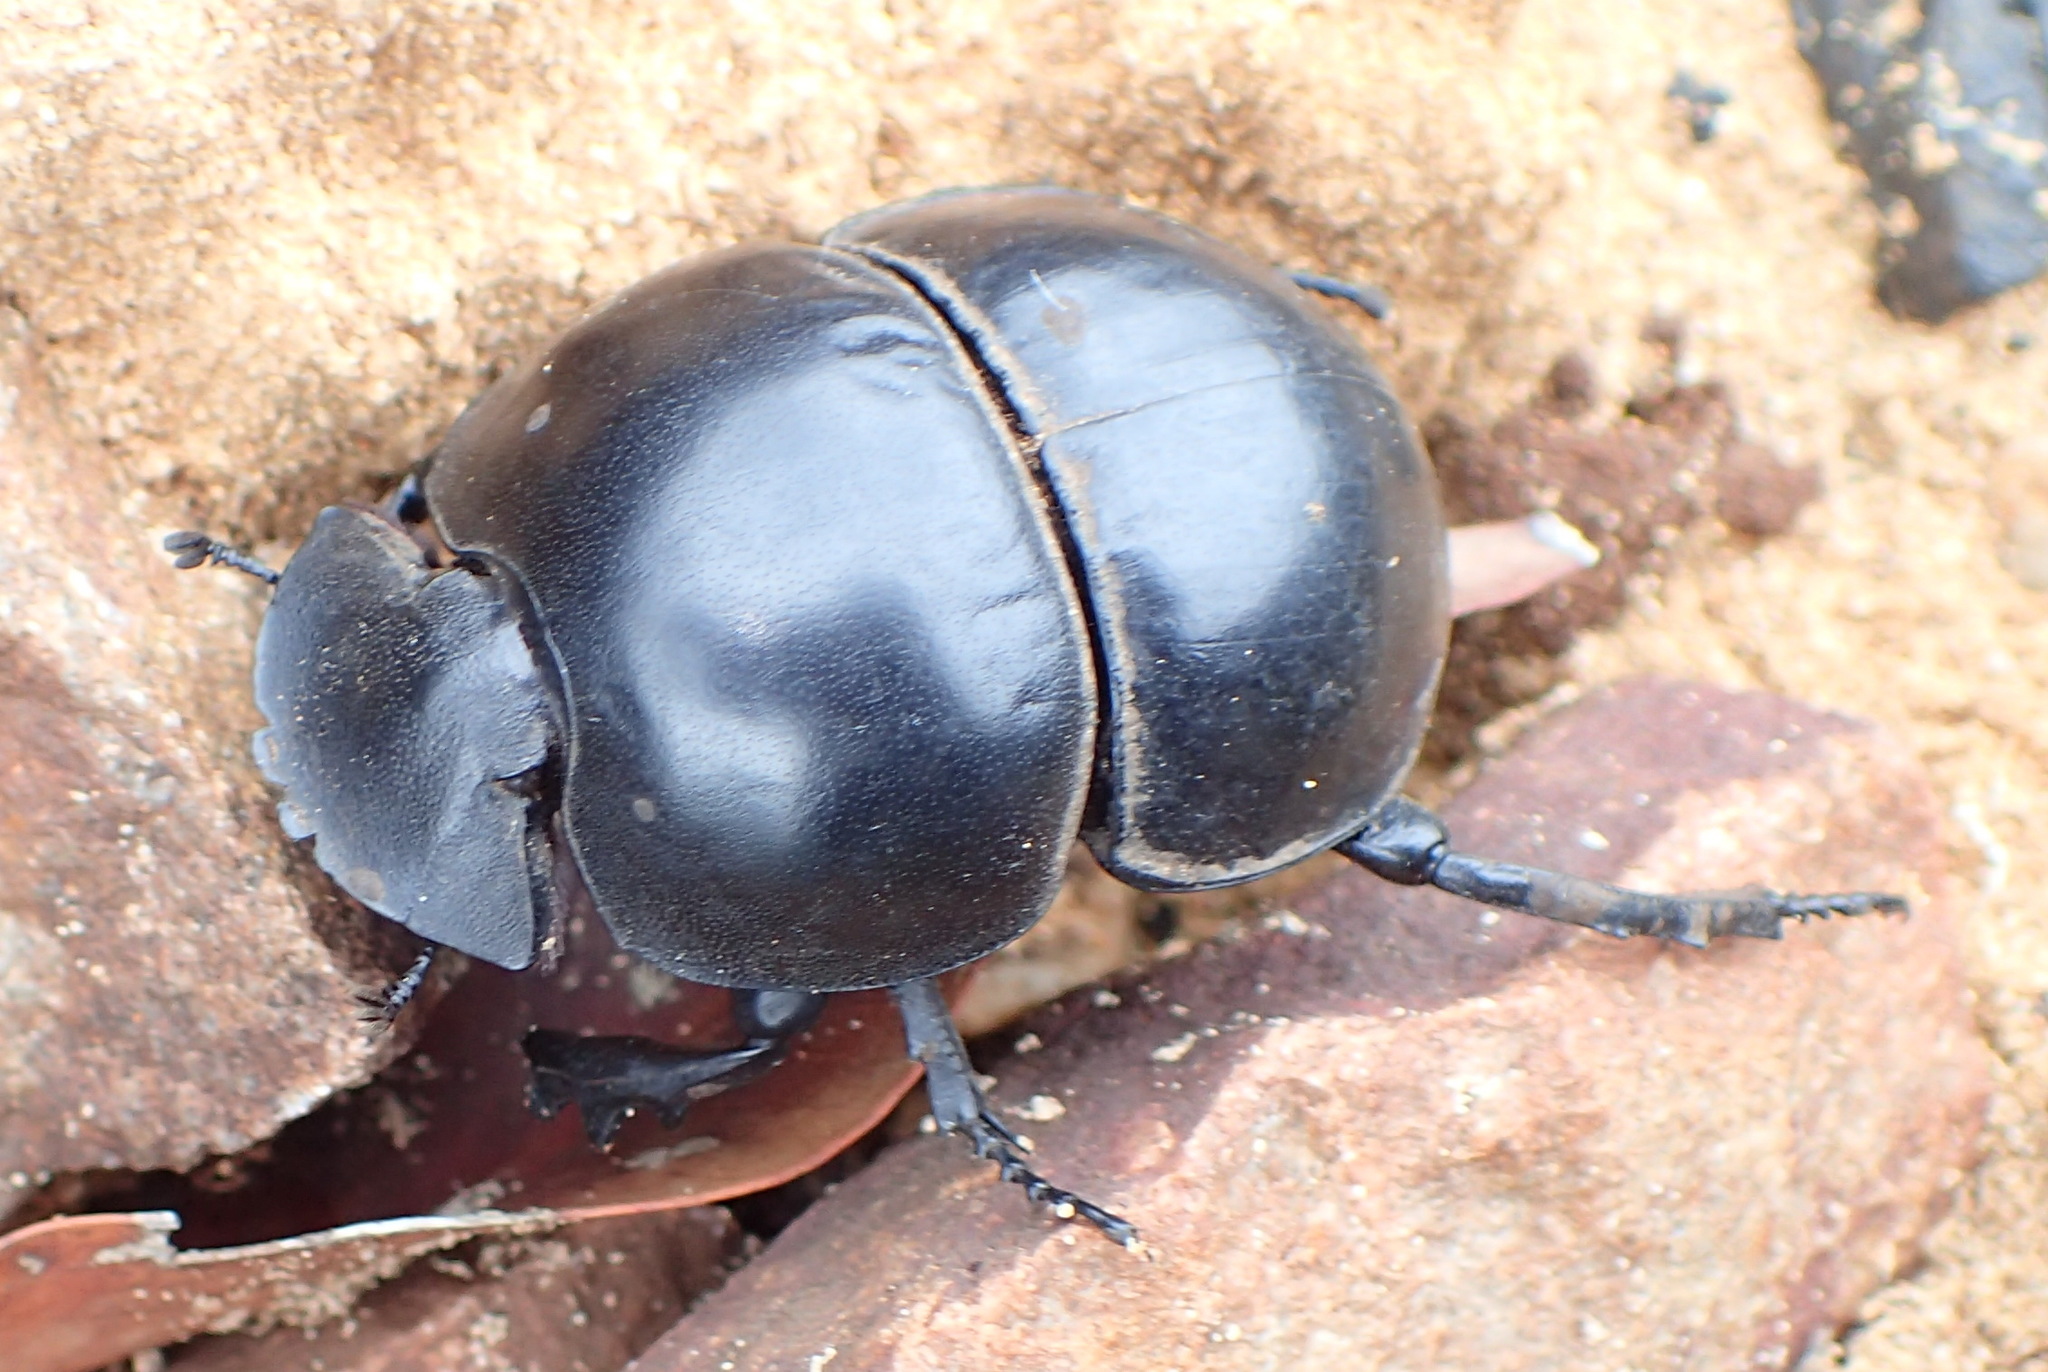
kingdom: Animalia
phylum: Arthropoda
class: Insecta
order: Coleoptera
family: Scarabaeidae
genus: Circellium
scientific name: Circellium bacchus
